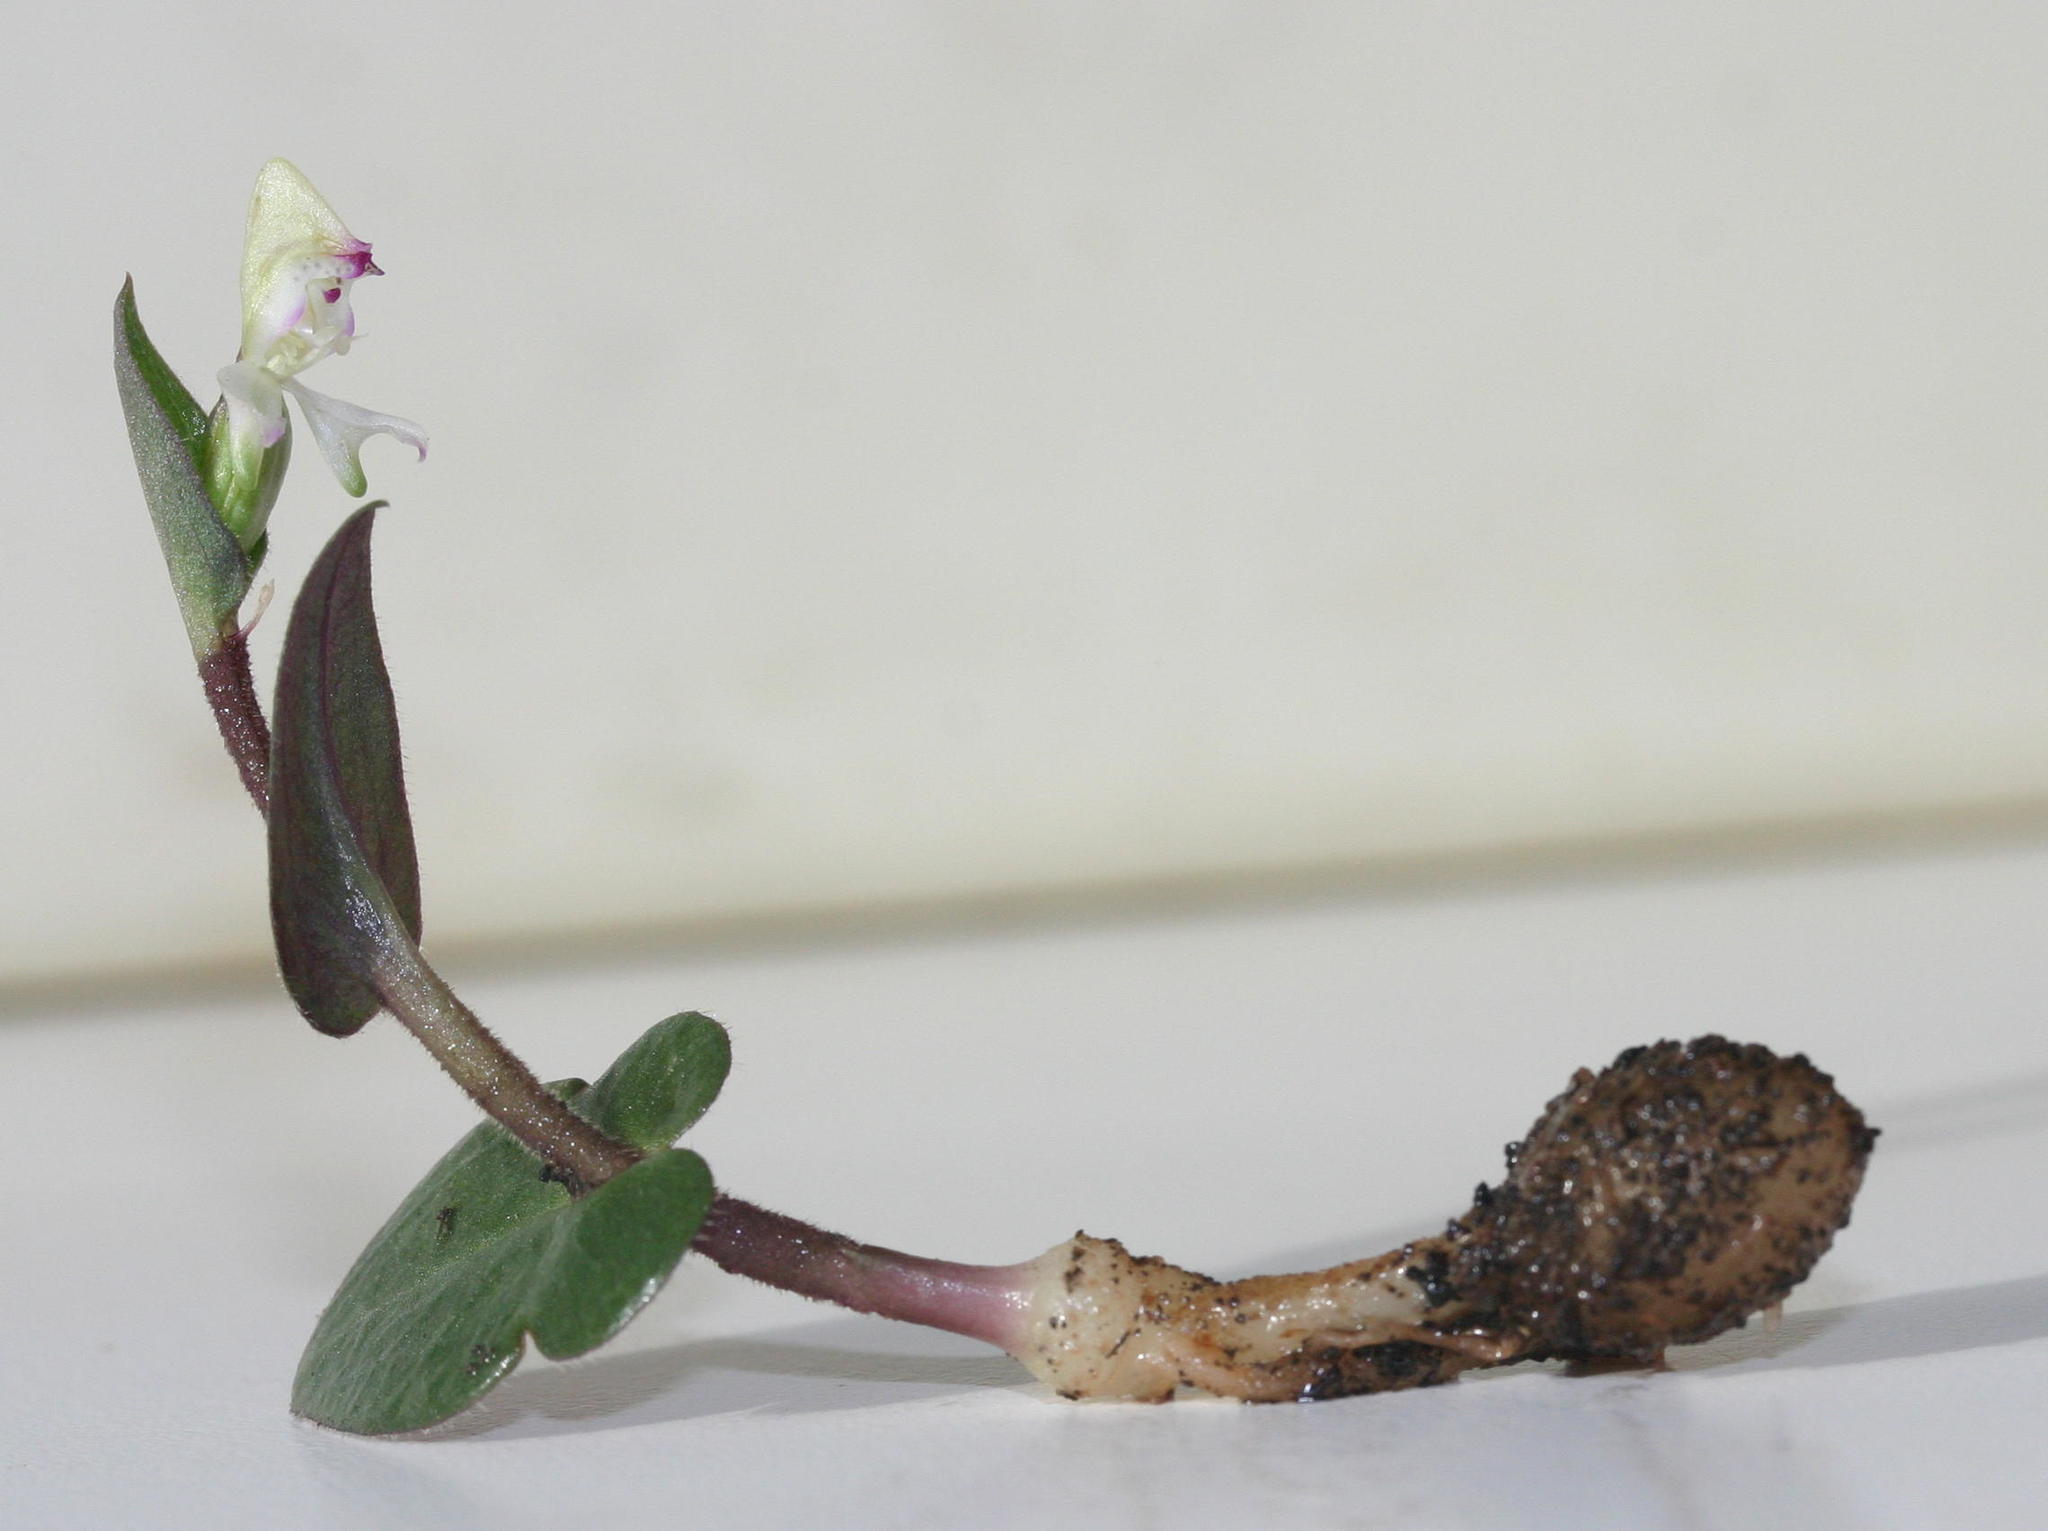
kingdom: Plantae
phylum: Tracheophyta
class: Liliopsida
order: Asparagales
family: Orchidaceae
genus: Disperis
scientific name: Disperis macowanii
